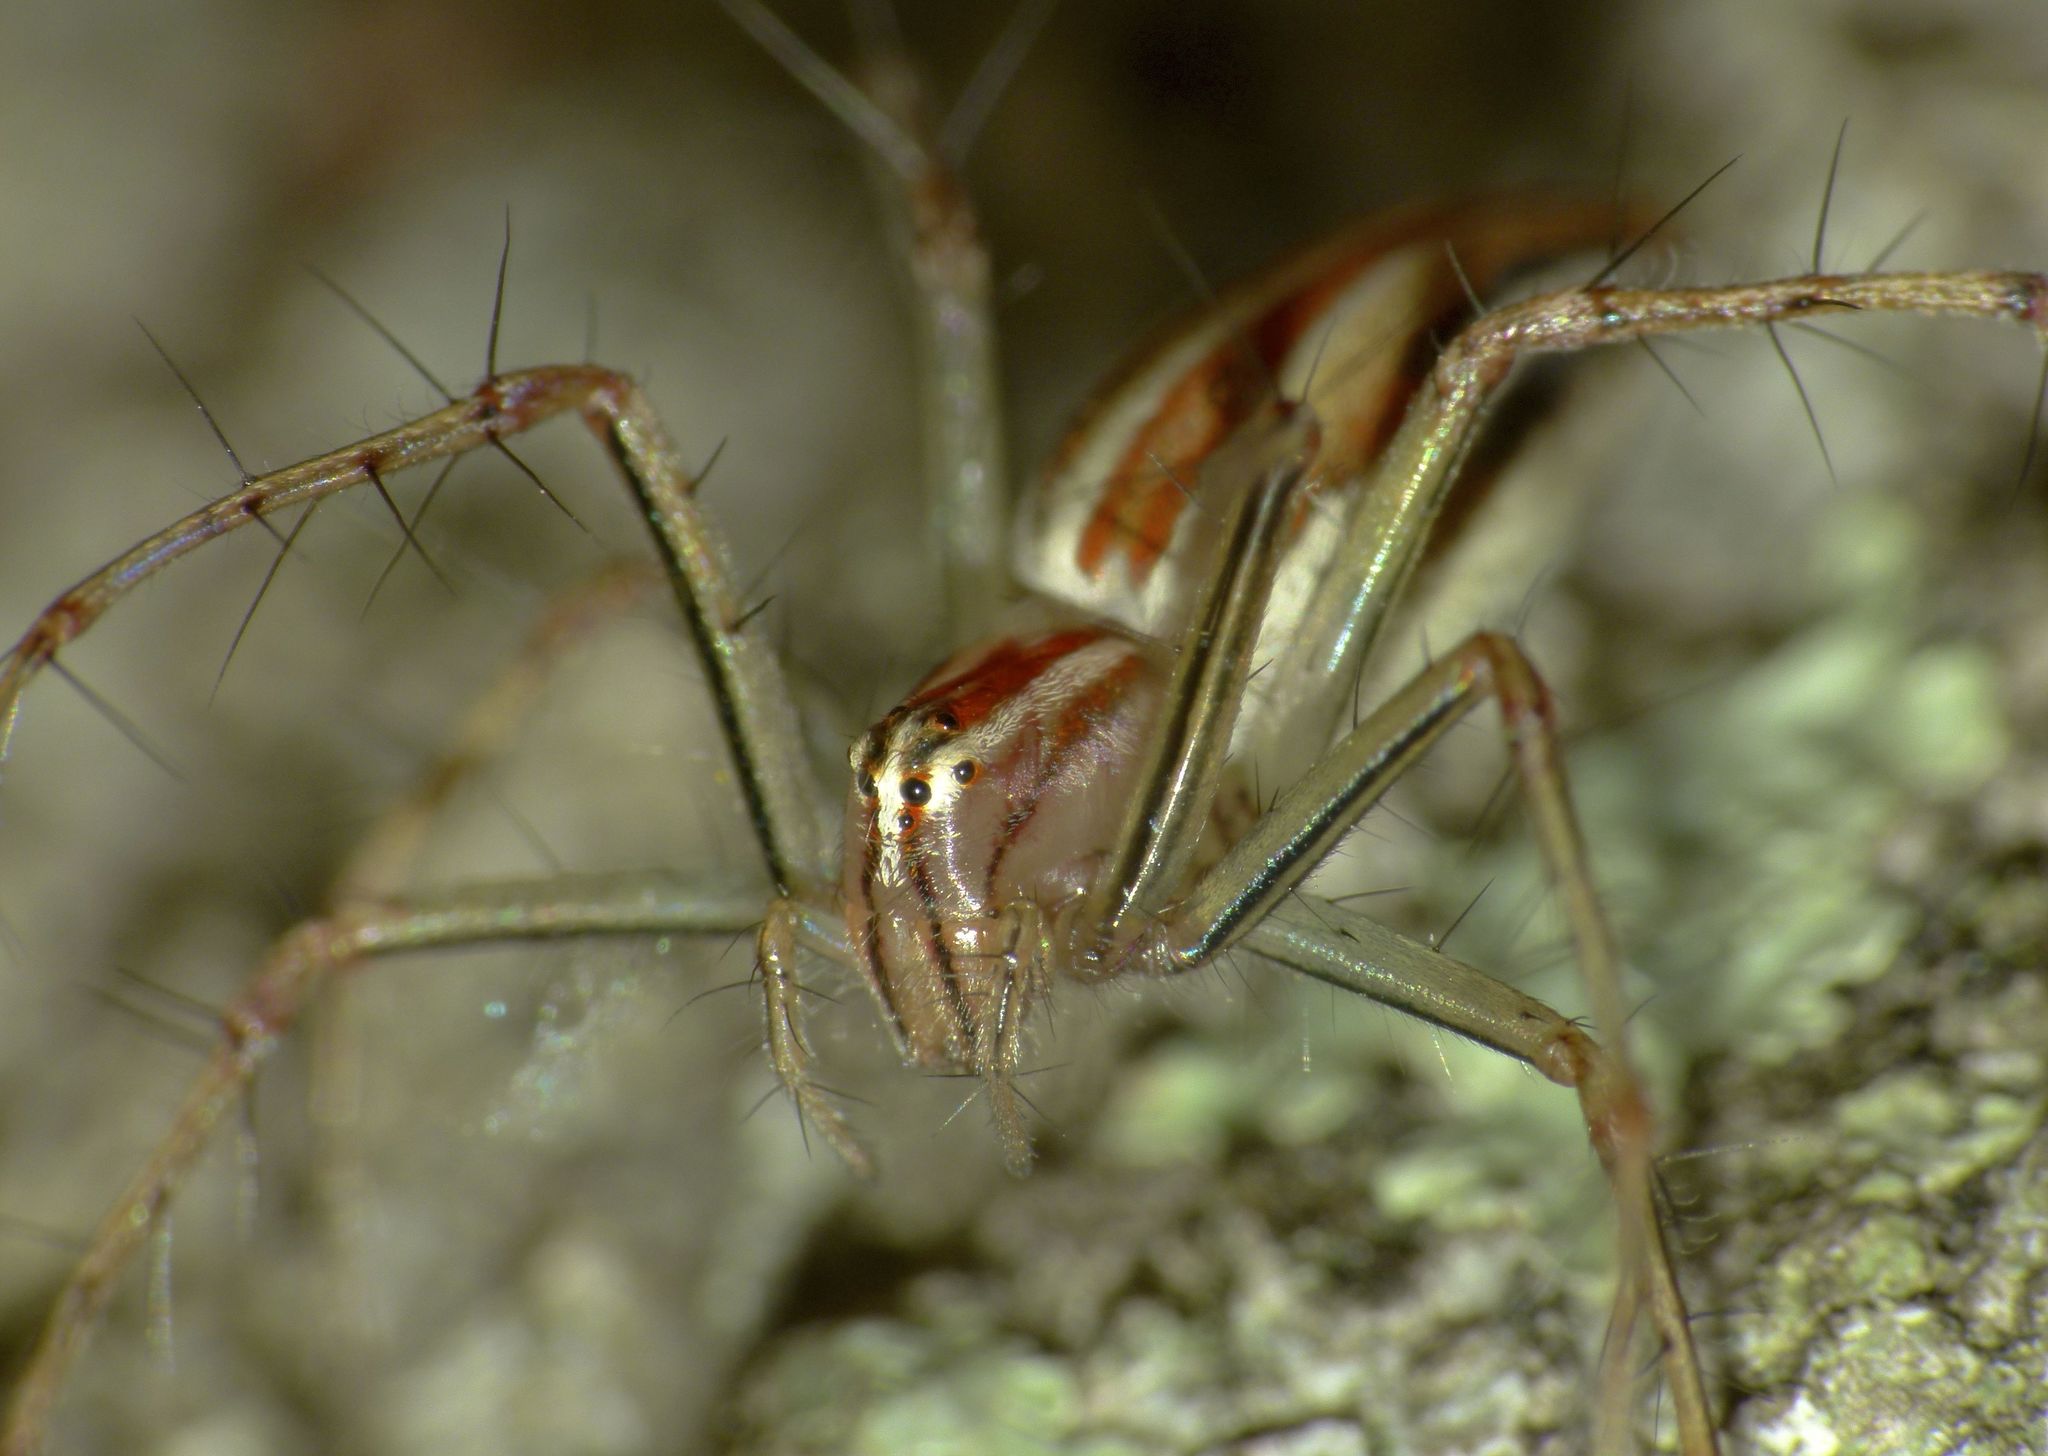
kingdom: Animalia
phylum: Arthropoda
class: Arachnida
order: Araneae
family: Oxyopidae
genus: Oxyopes
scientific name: Oxyopes macilentus
